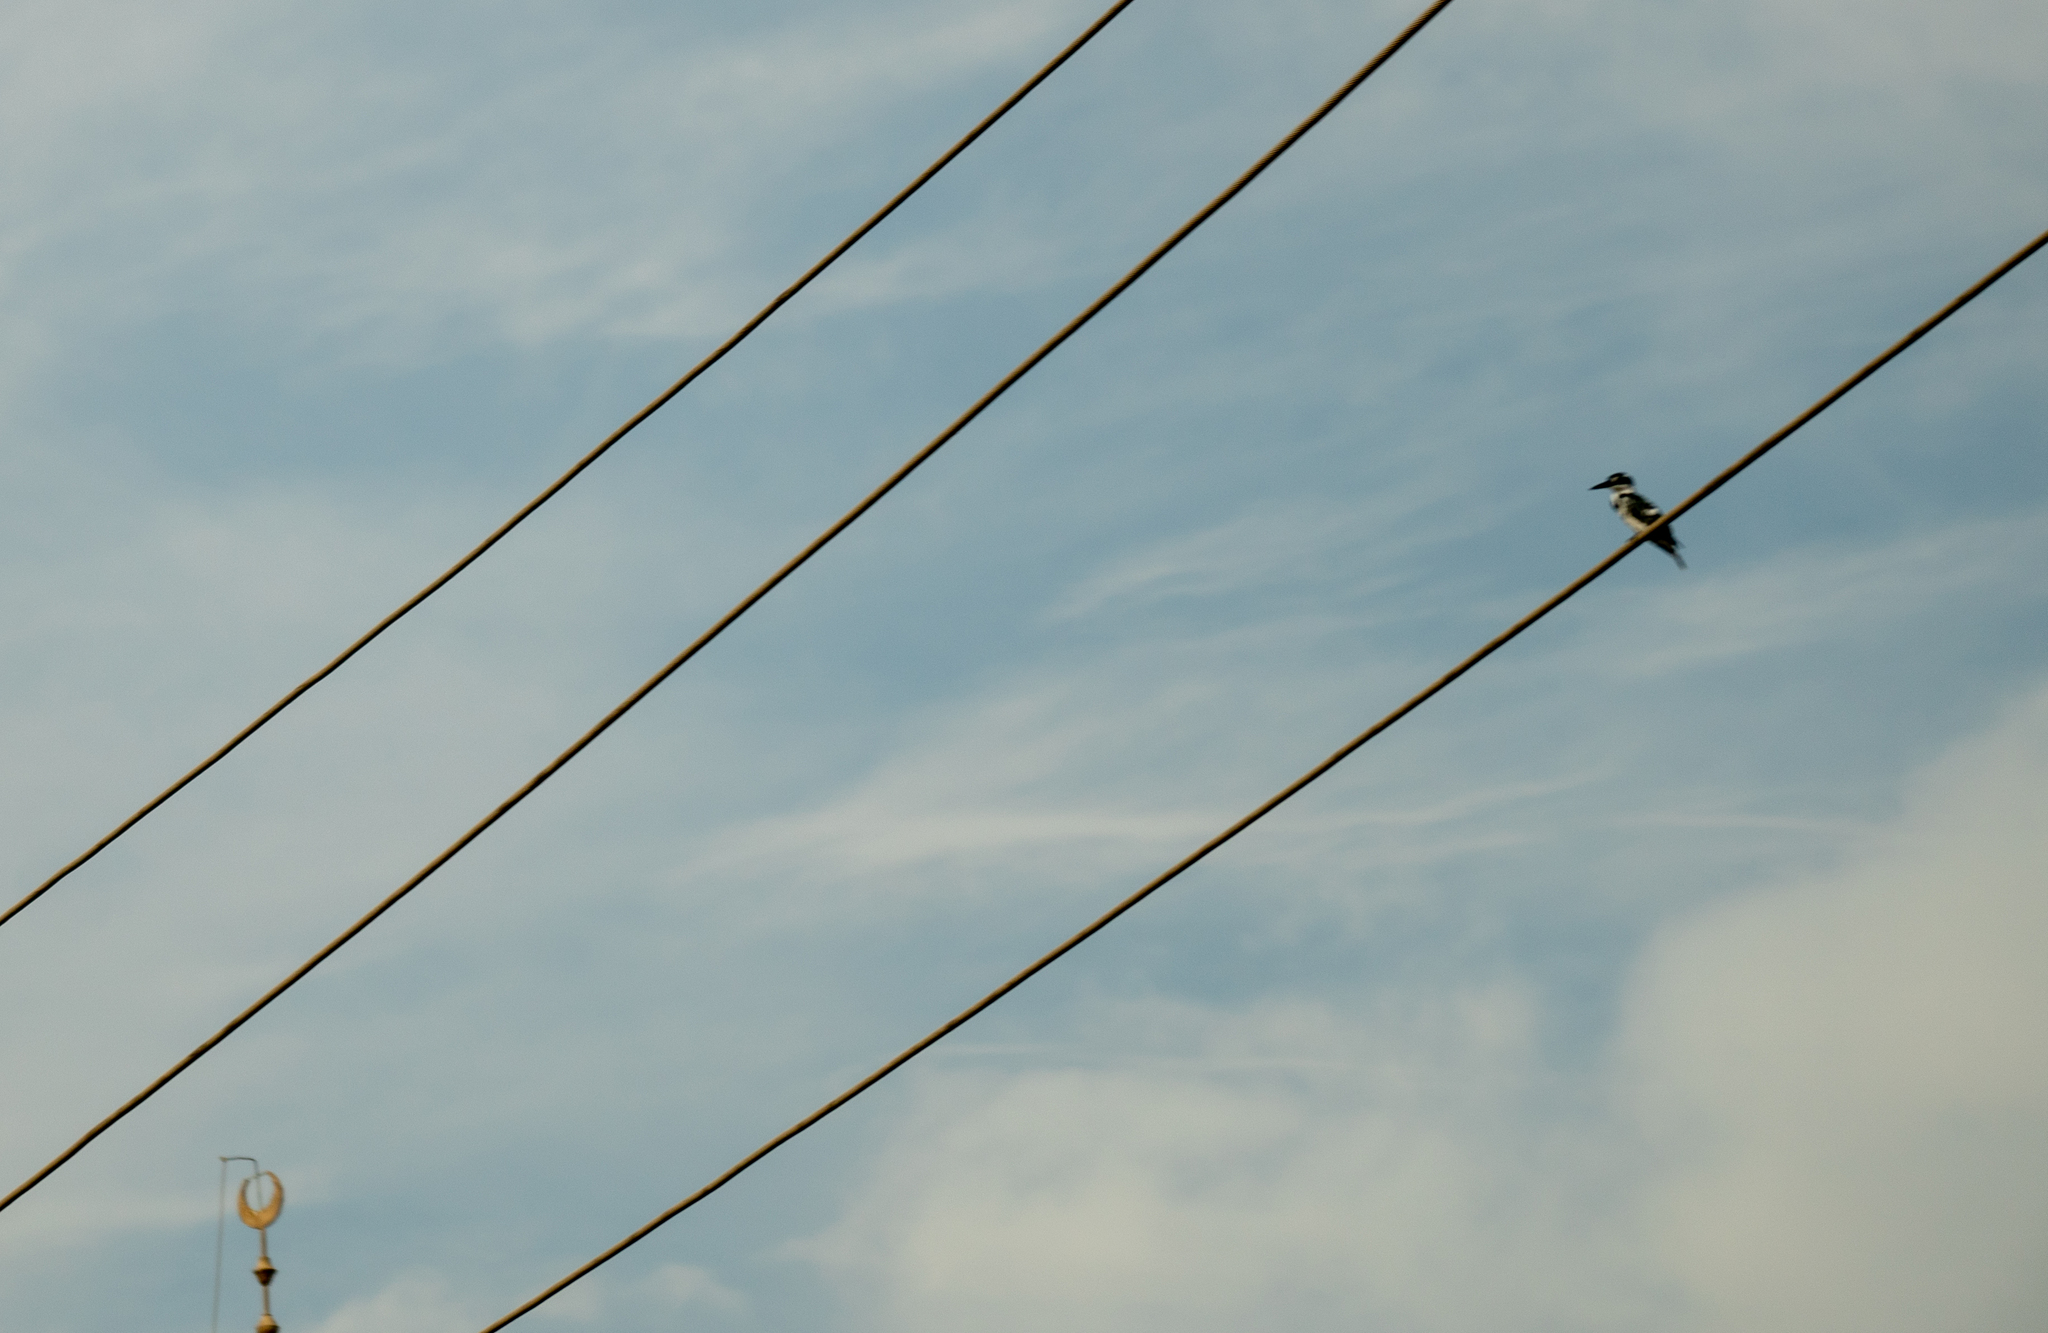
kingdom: Animalia
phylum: Chordata
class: Aves
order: Coraciiformes
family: Alcedinidae
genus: Ceryle
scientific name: Ceryle rudis
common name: Pied kingfisher
